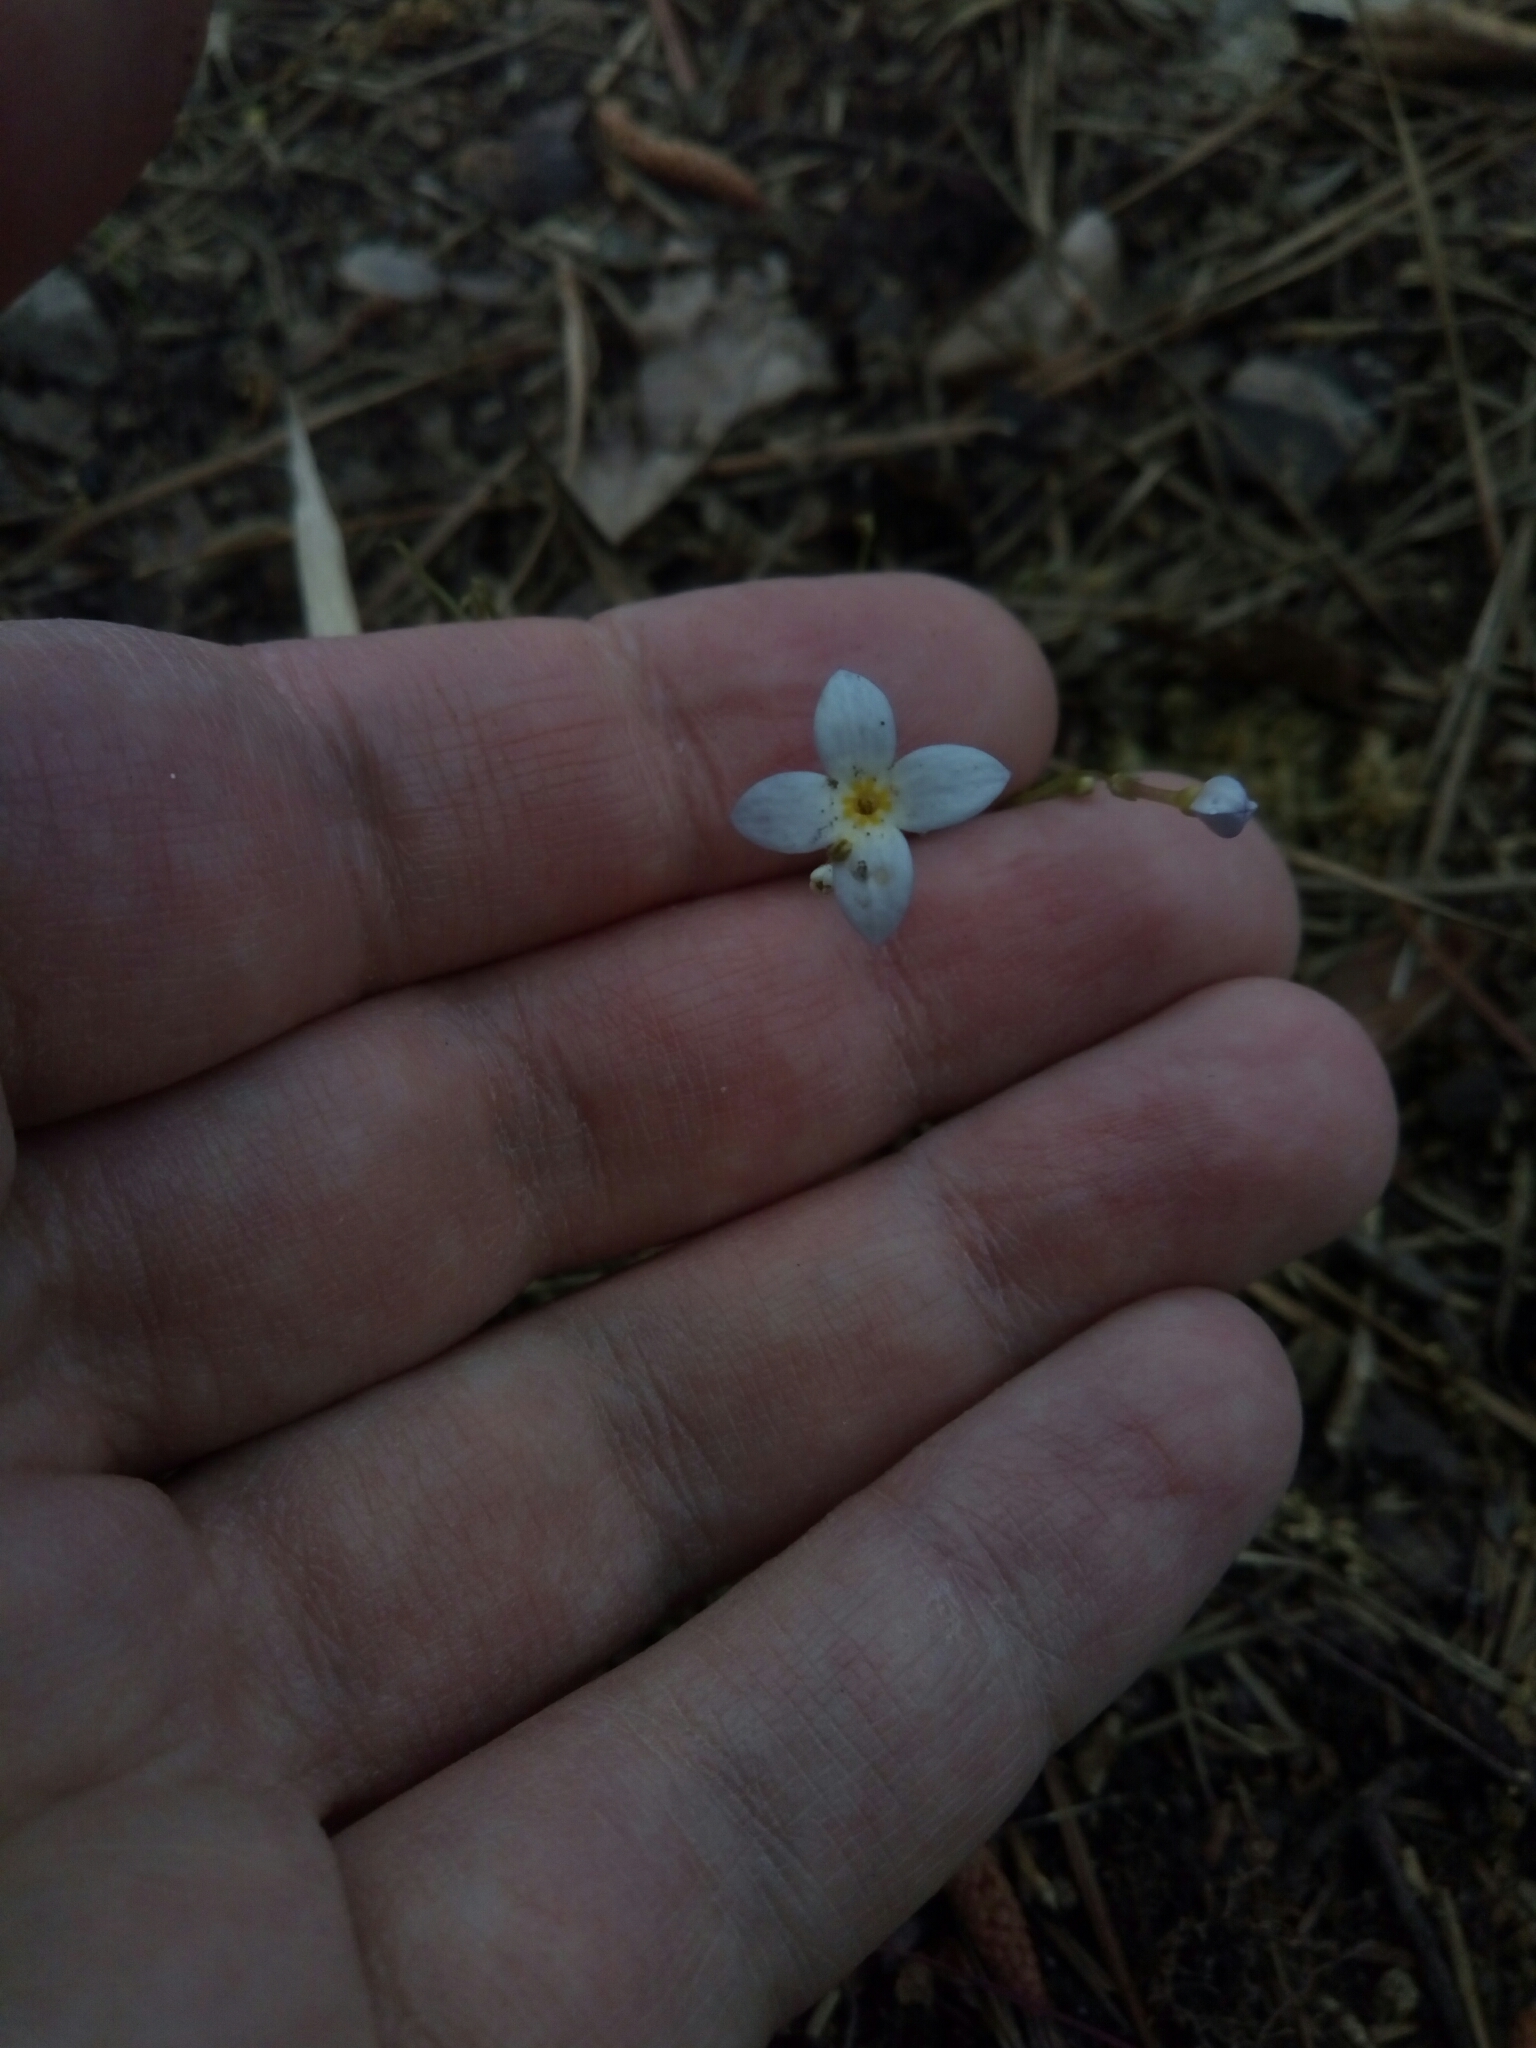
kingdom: Plantae
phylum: Tracheophyta
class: Magnoliopsida
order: Gentianales
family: Rubiaceae
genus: Houstonia
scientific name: Houstonia caerulea
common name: Bluets
